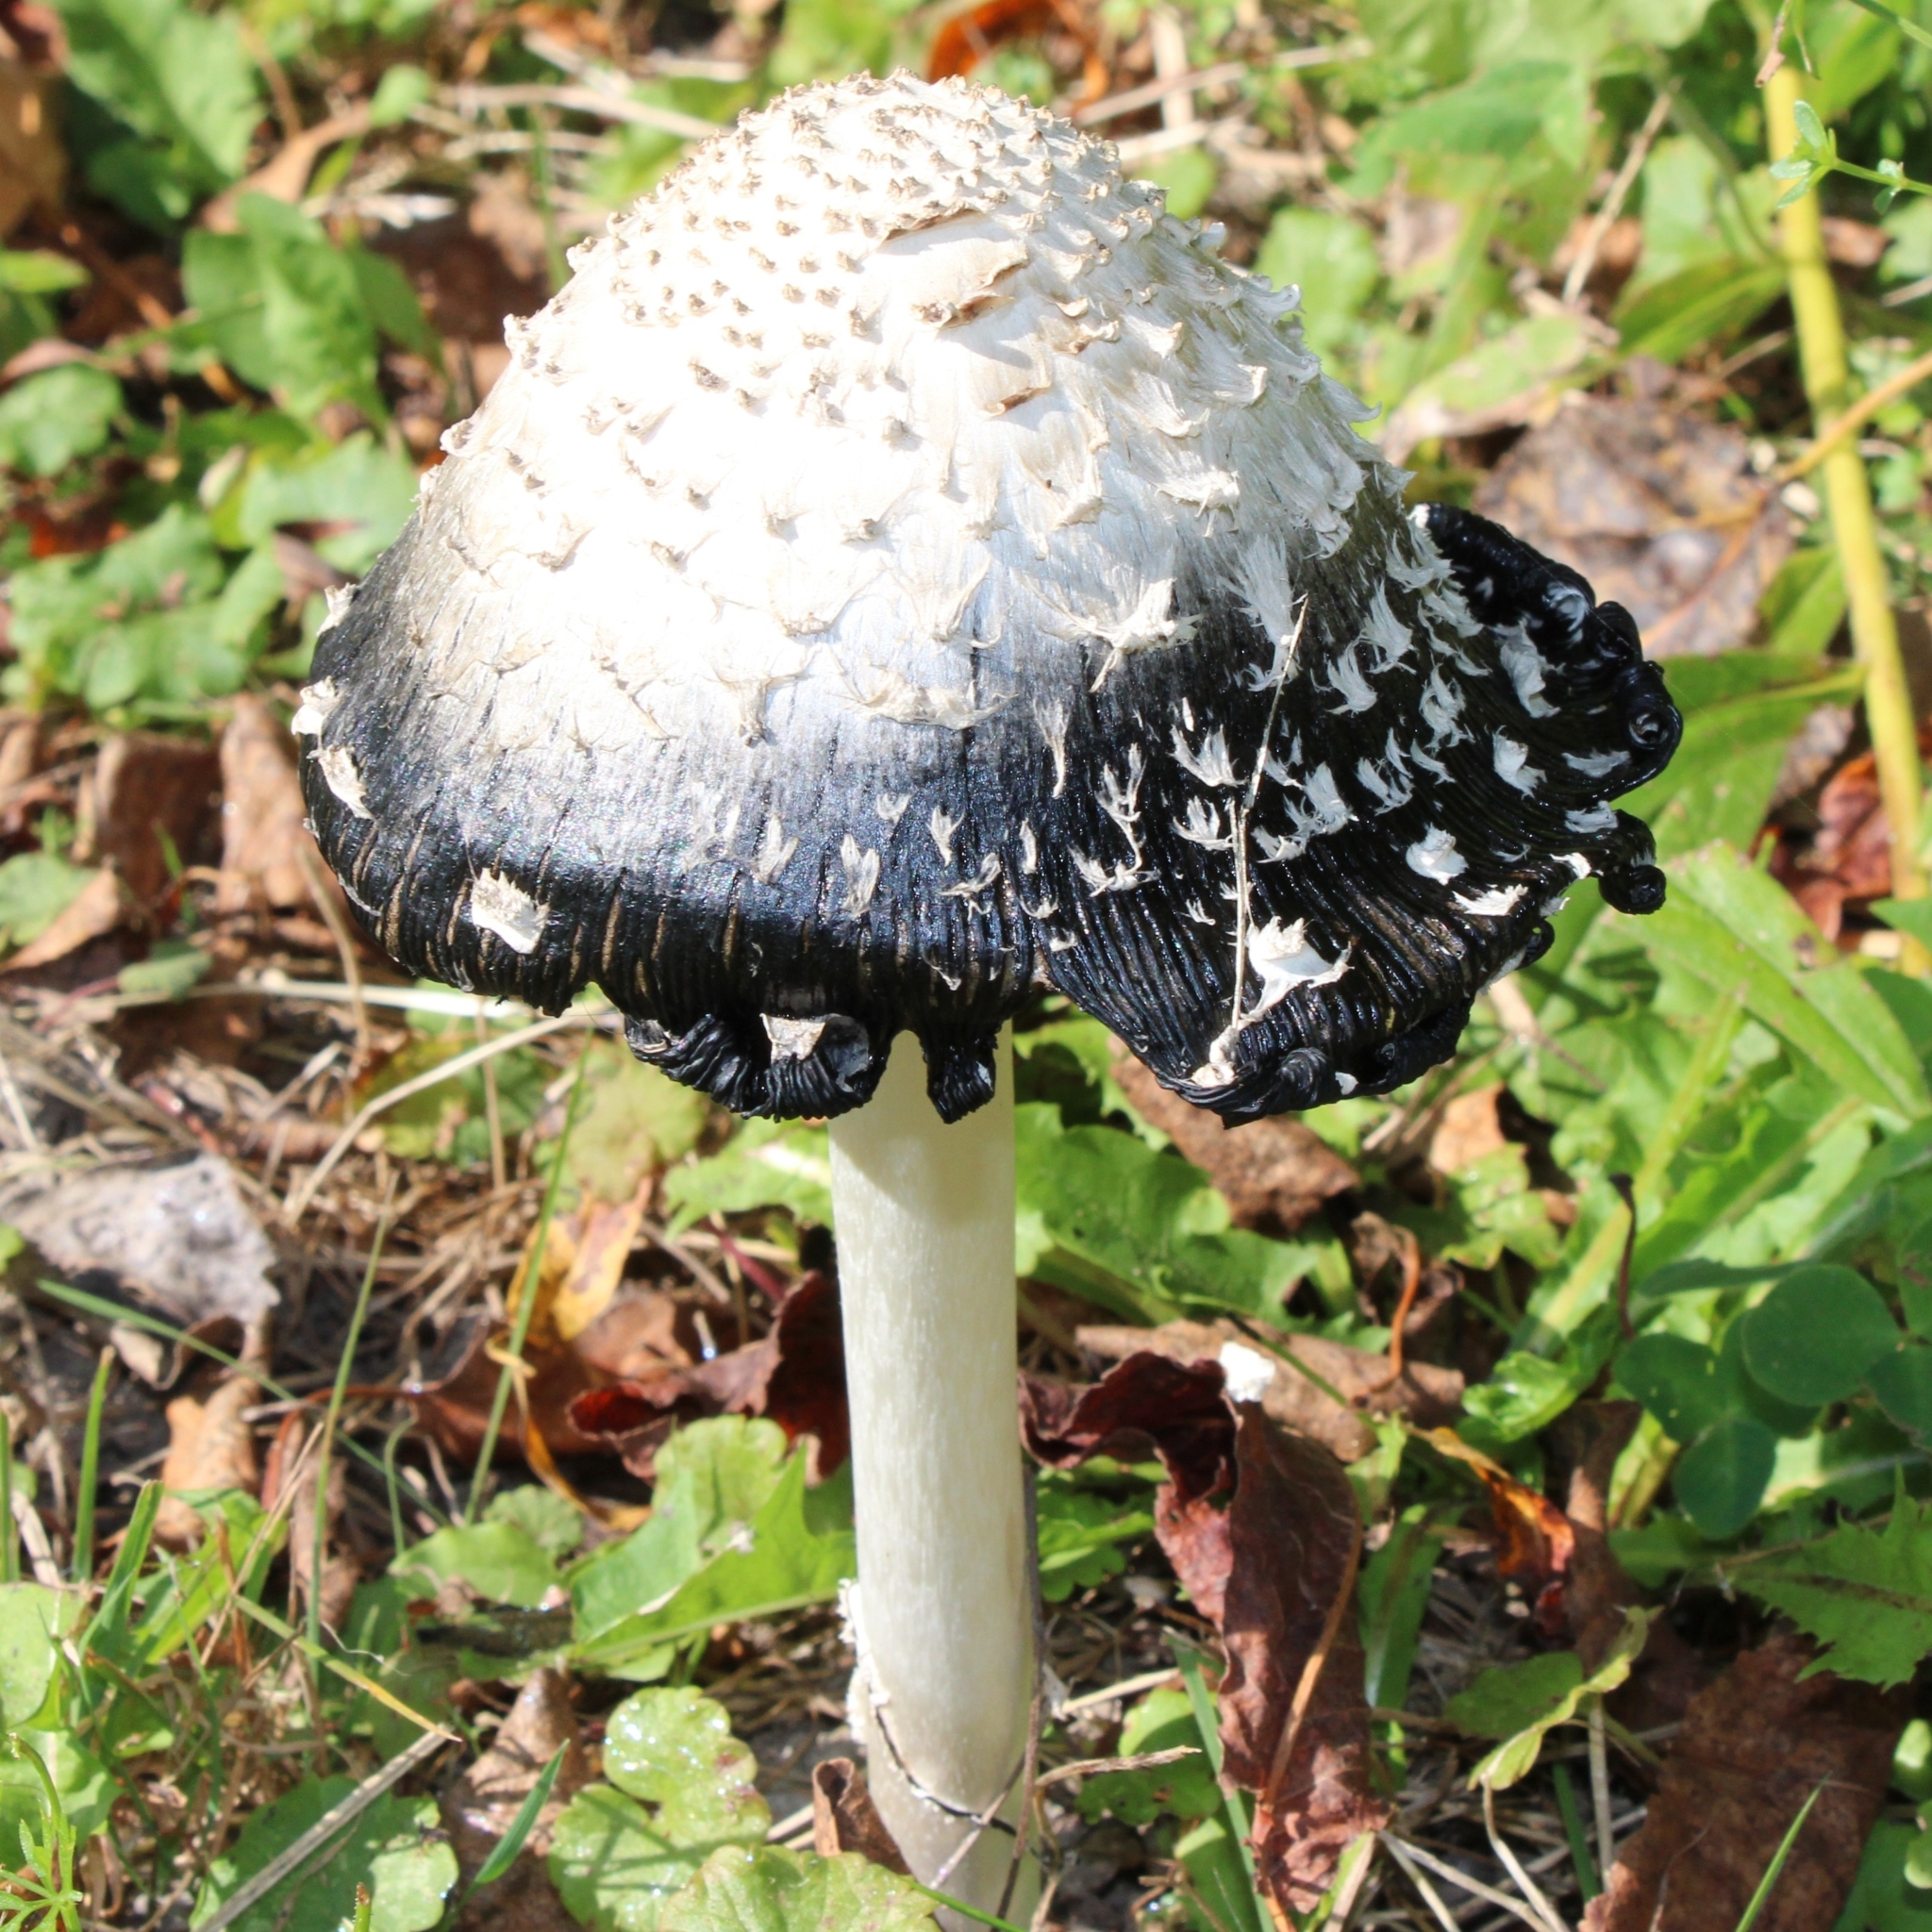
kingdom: Fungi
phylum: Basidiomycota
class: Agaricomycetes
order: Agaricales
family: Agaricaceae
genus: Coprinus
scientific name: Coprinus comatus
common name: Lawyer's wig
